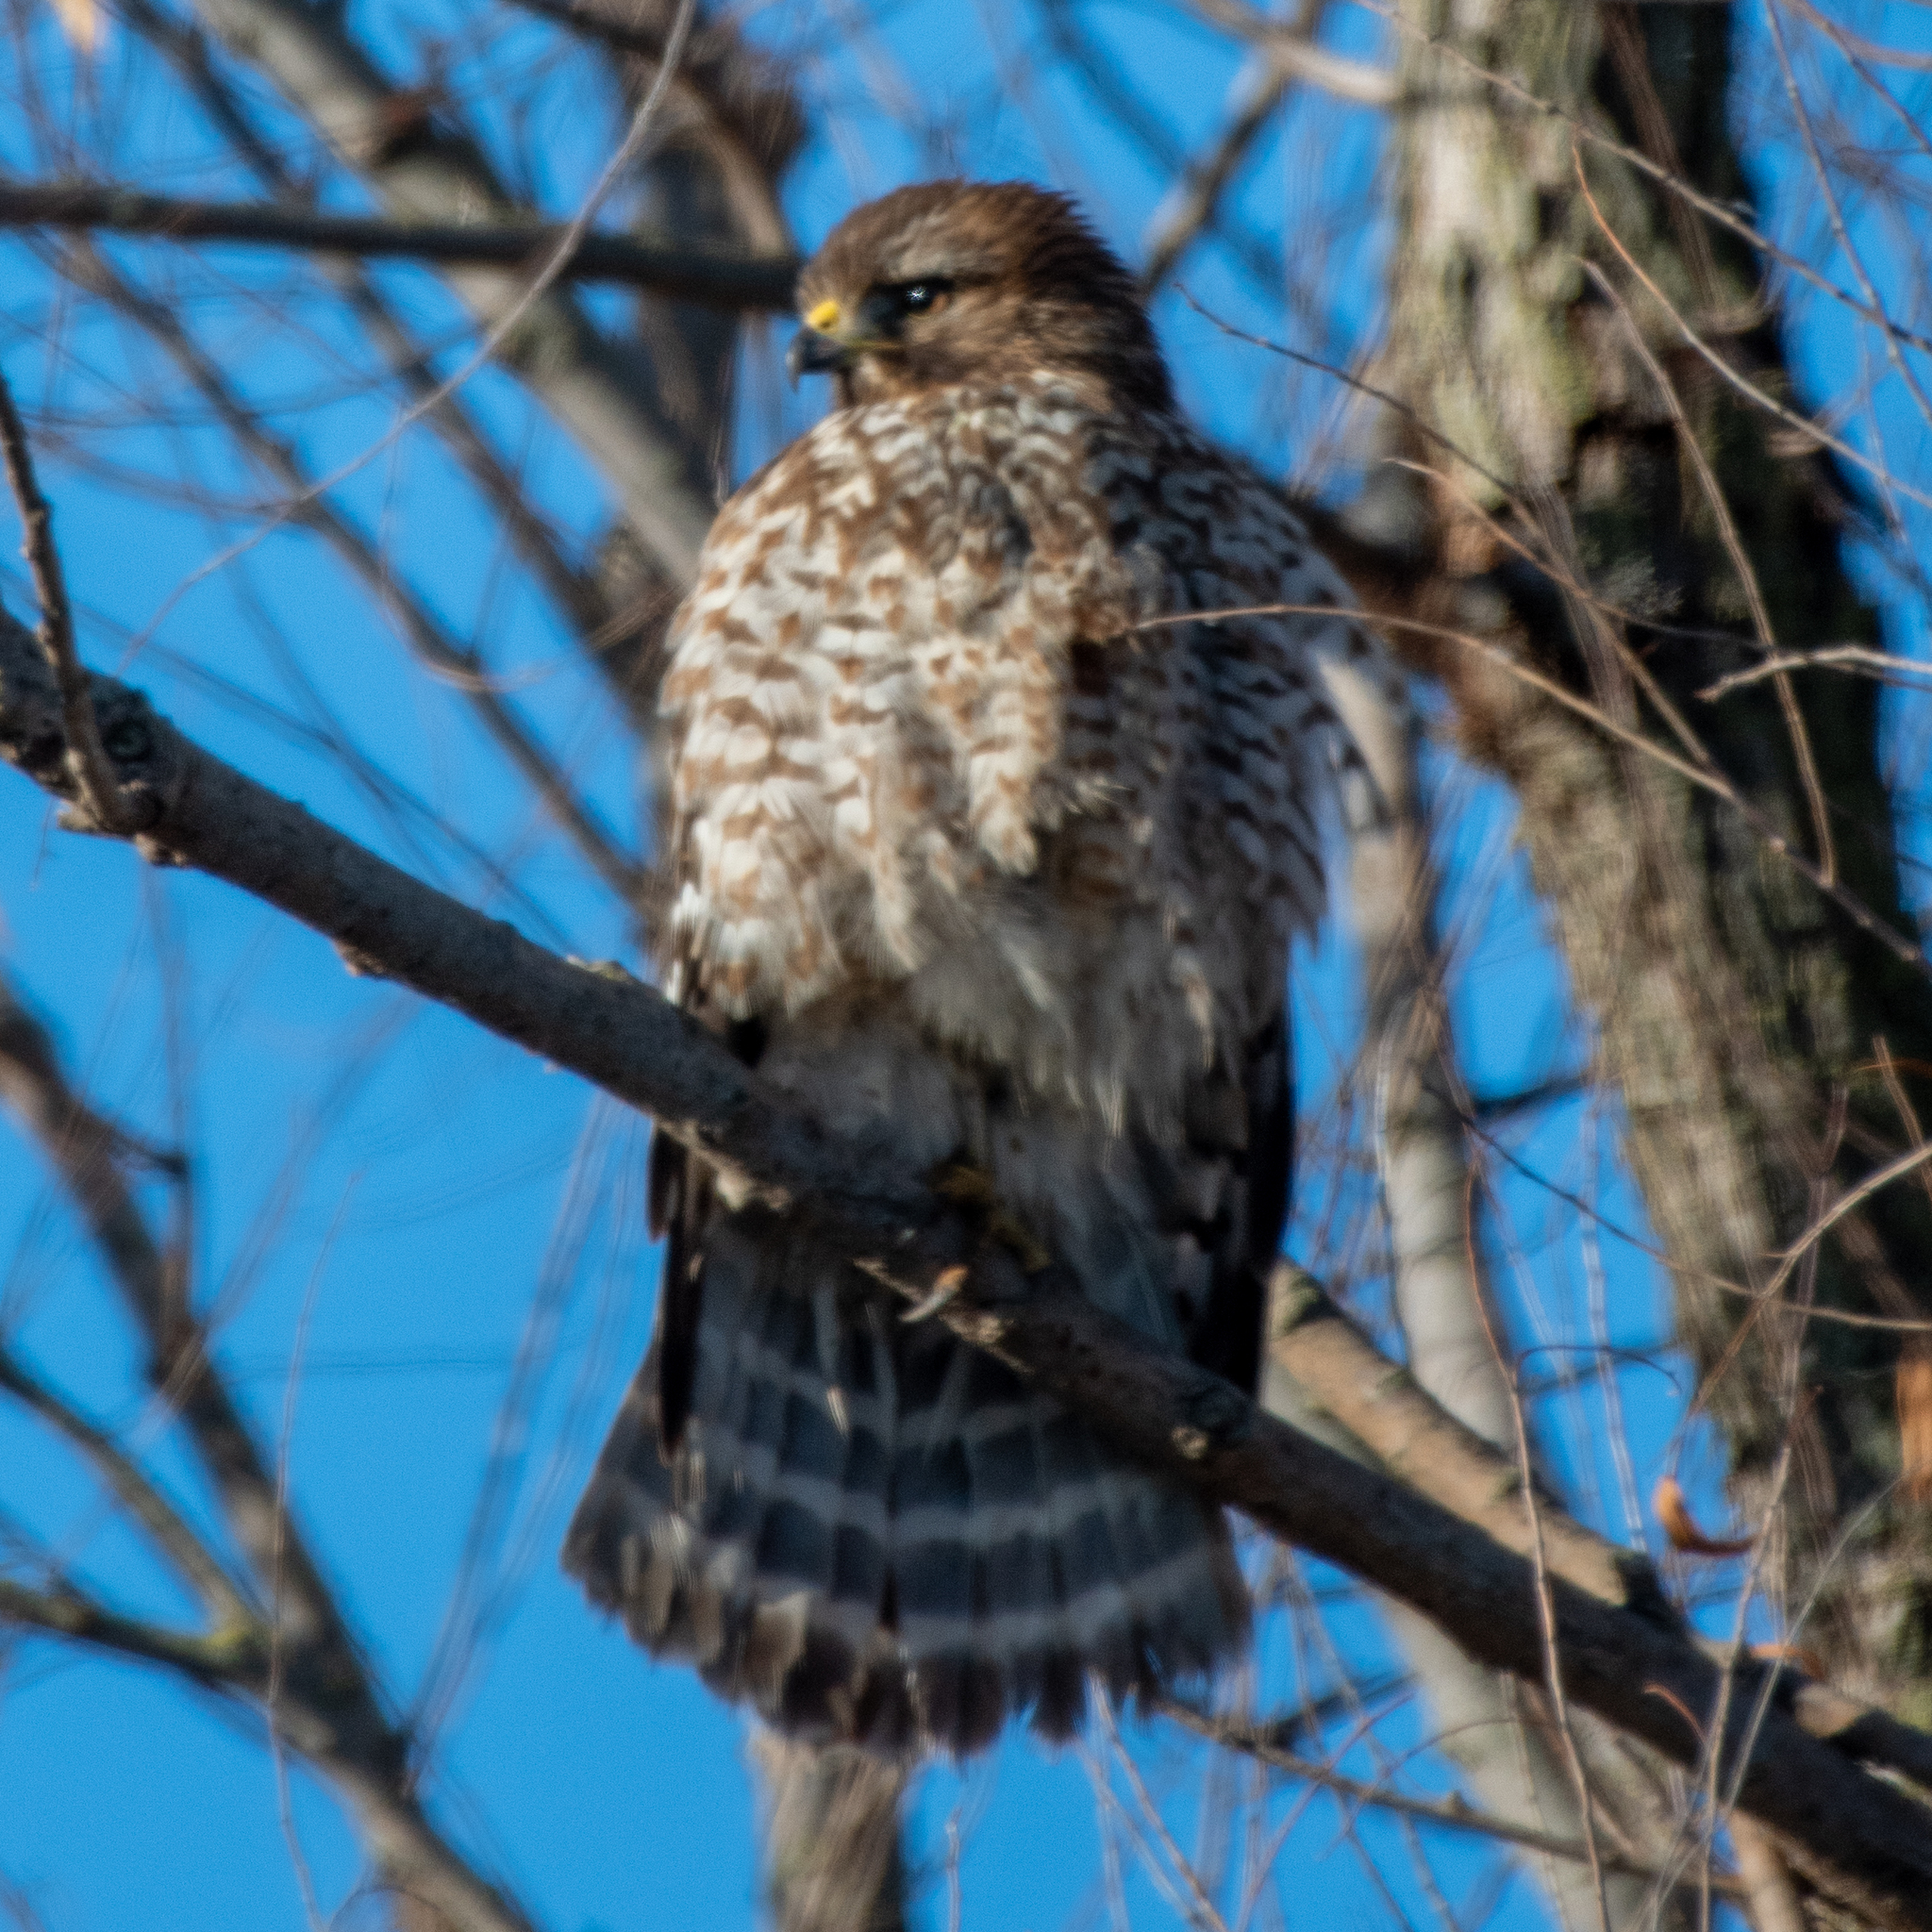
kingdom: Animalia
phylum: Chordata
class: Aves
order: Accipitriformes
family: Accipitridae
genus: Buteo
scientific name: Buteo lineatus
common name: Red-shouldered hawk
